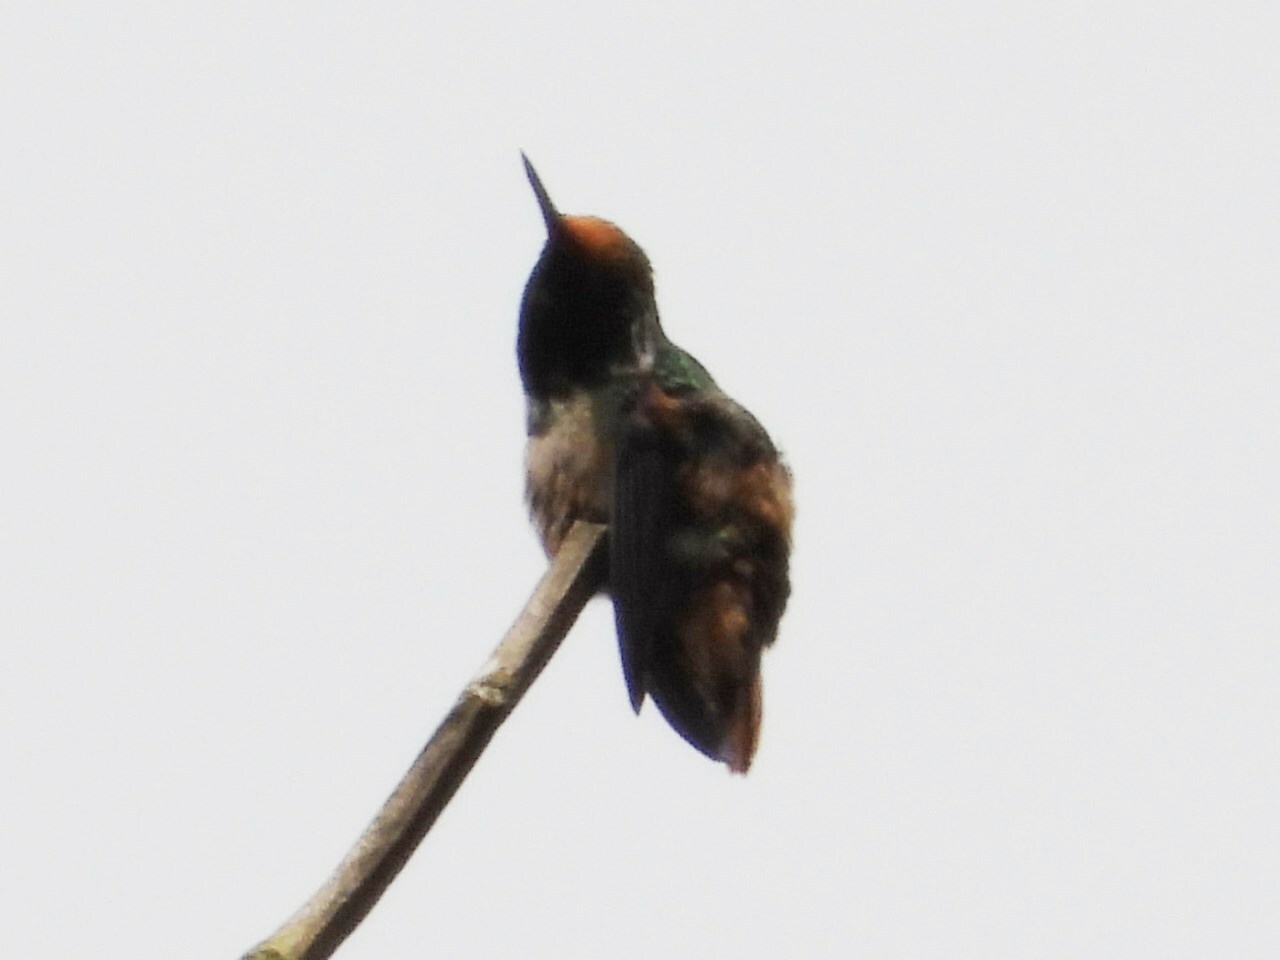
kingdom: Animalia
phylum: Chordata
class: Aves
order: Apodiformes
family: Trochilidae
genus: Lophornis
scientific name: Lophornis delattrei
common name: Rufous-crested coquette
